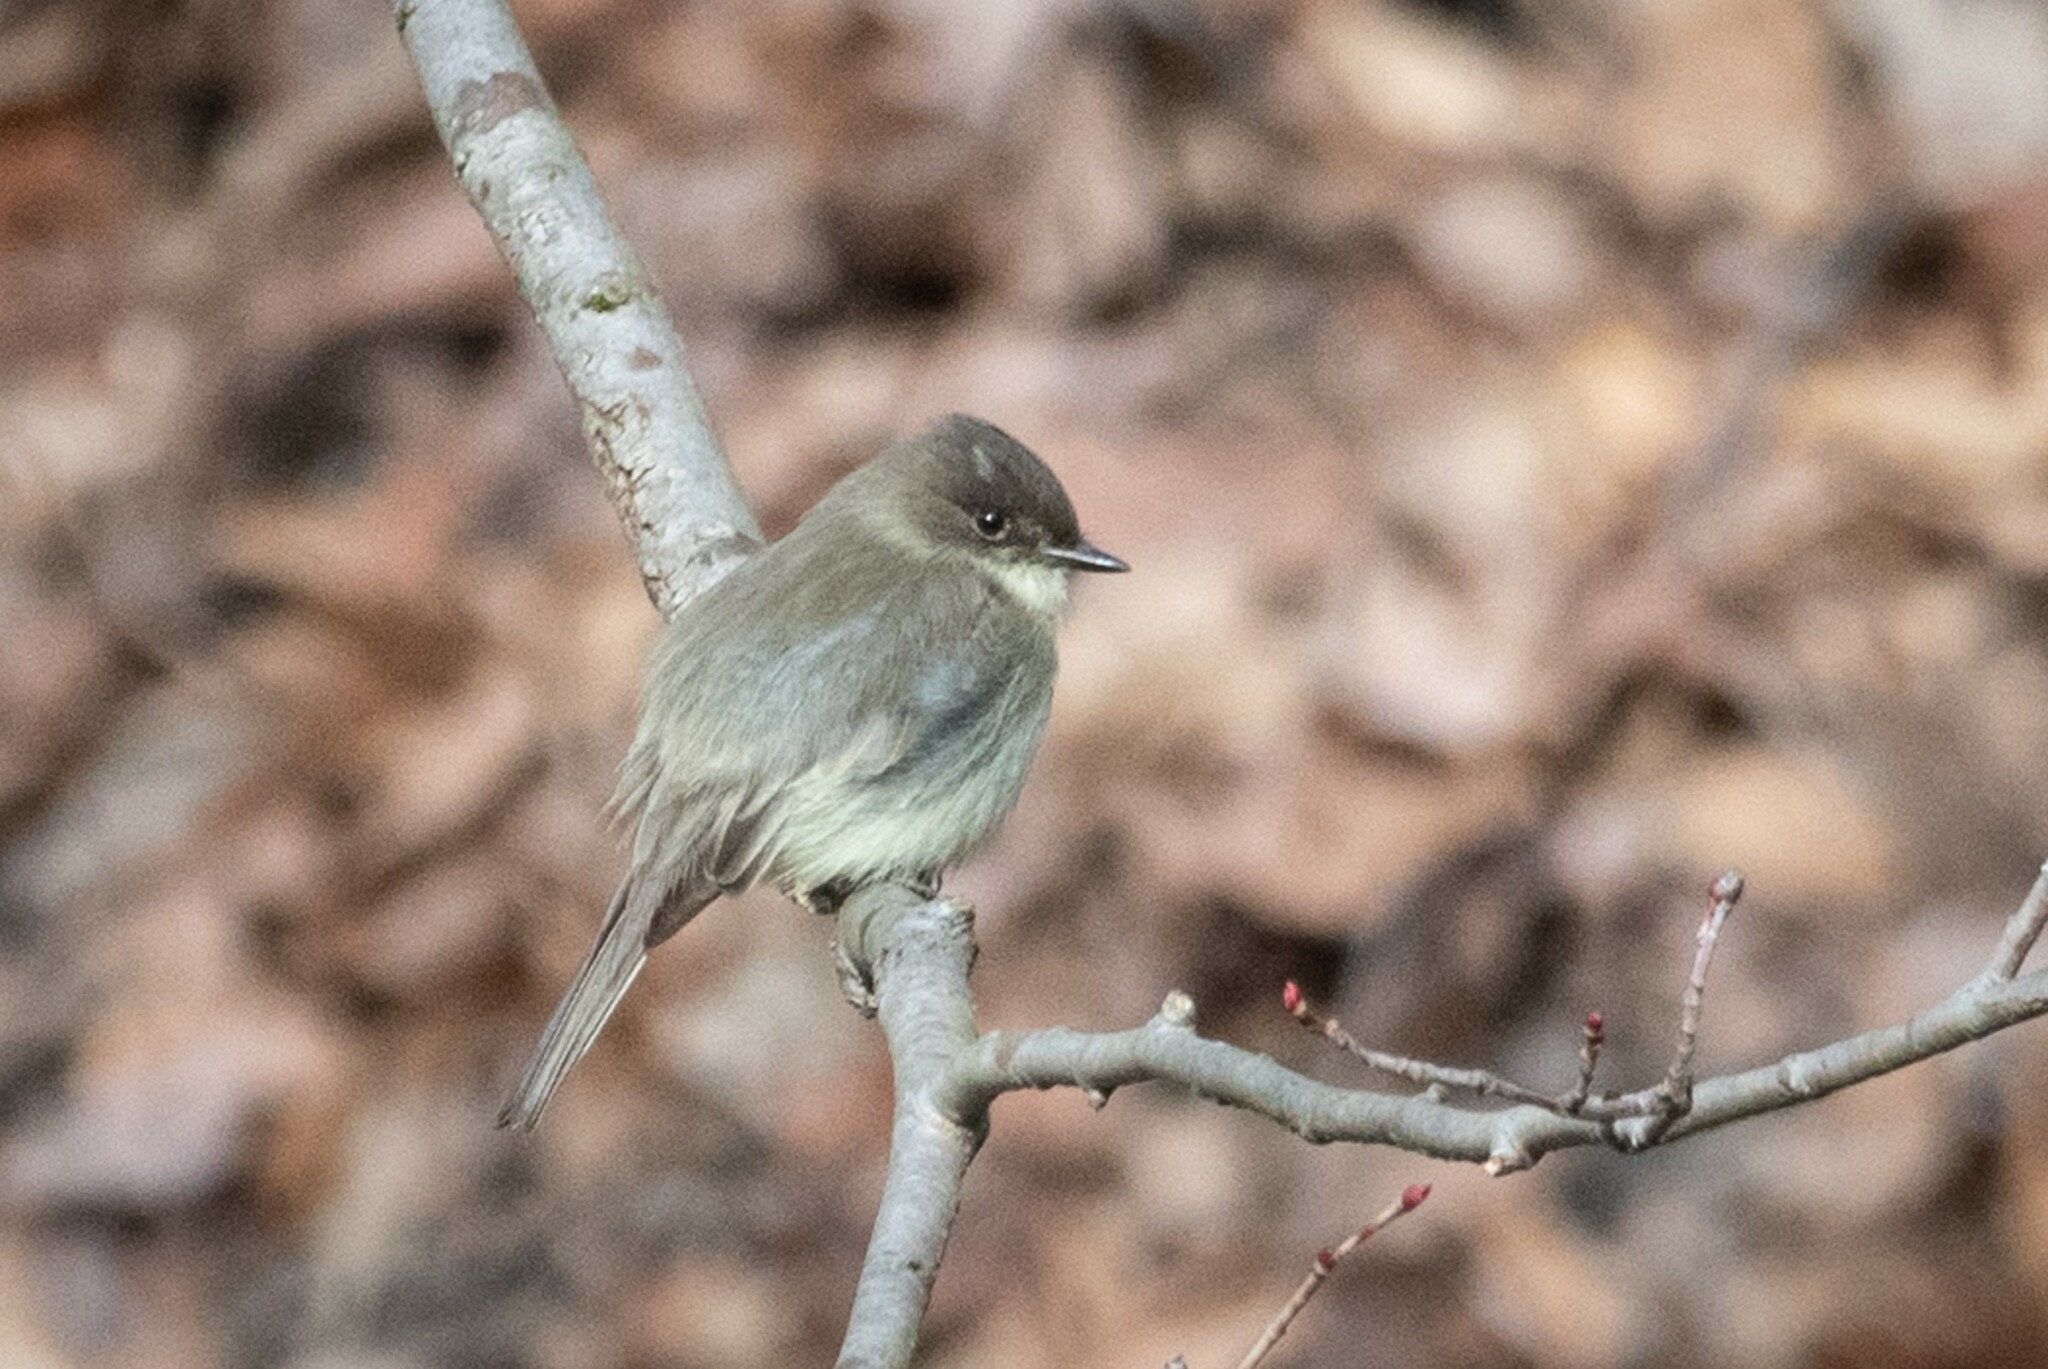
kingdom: Animalia
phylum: Chordata
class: Aves
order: Passeriformes
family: Tyrannidae
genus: Sayornis
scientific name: Sayornis phoebe
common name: Eastern phoebe
